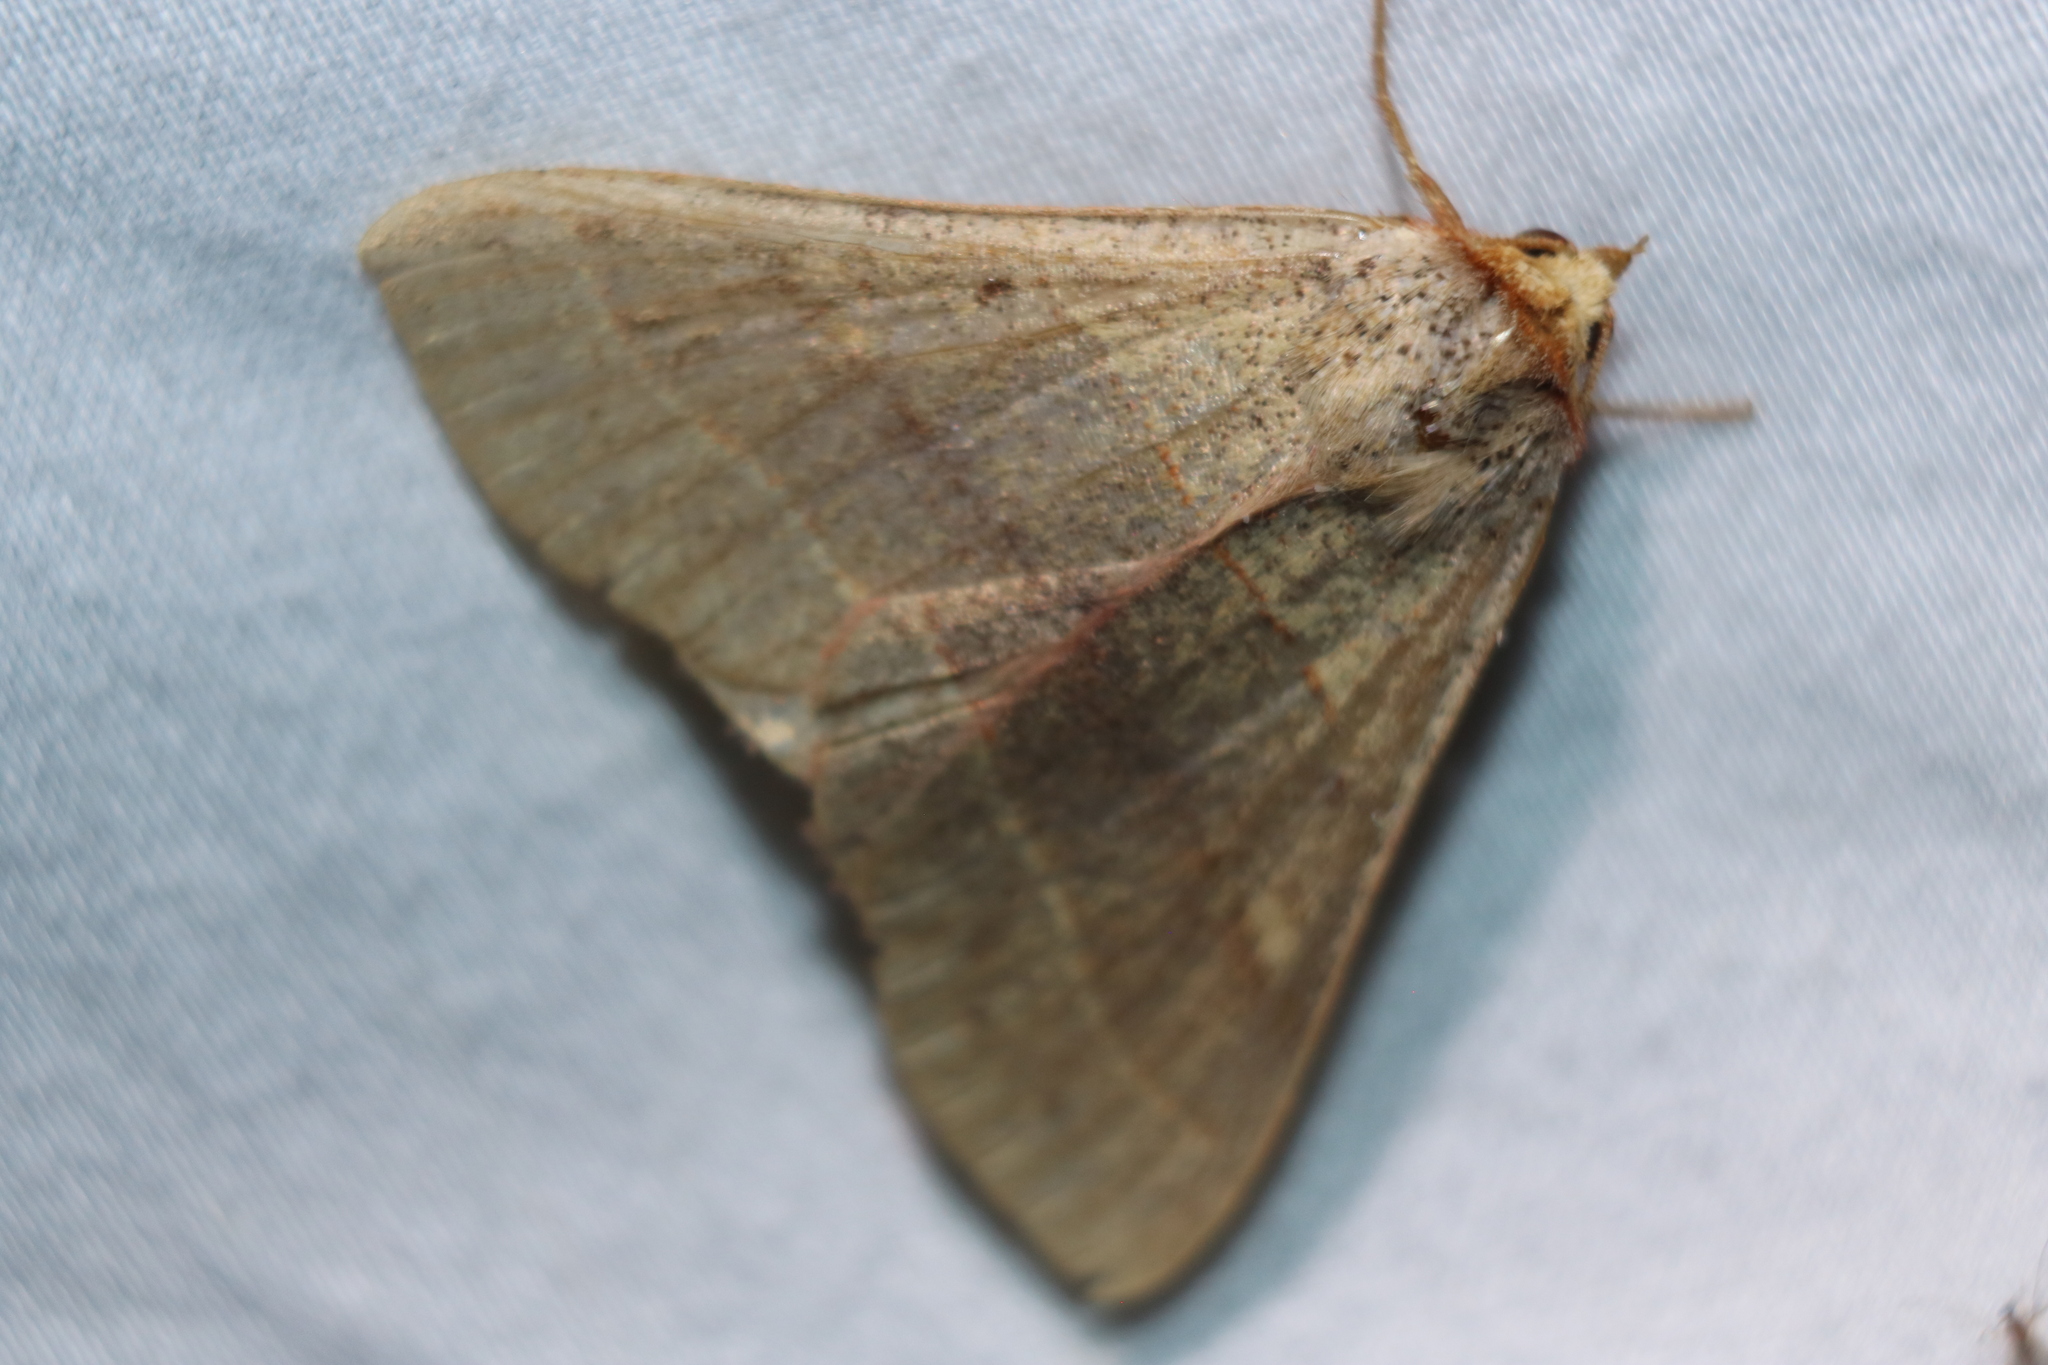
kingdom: Animalia
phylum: Arthropoda
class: Insecta
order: Lepidoptera
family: Erebidae
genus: Panopoda
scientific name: Panopoda rufimargo
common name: Red-lined panopoda moth
